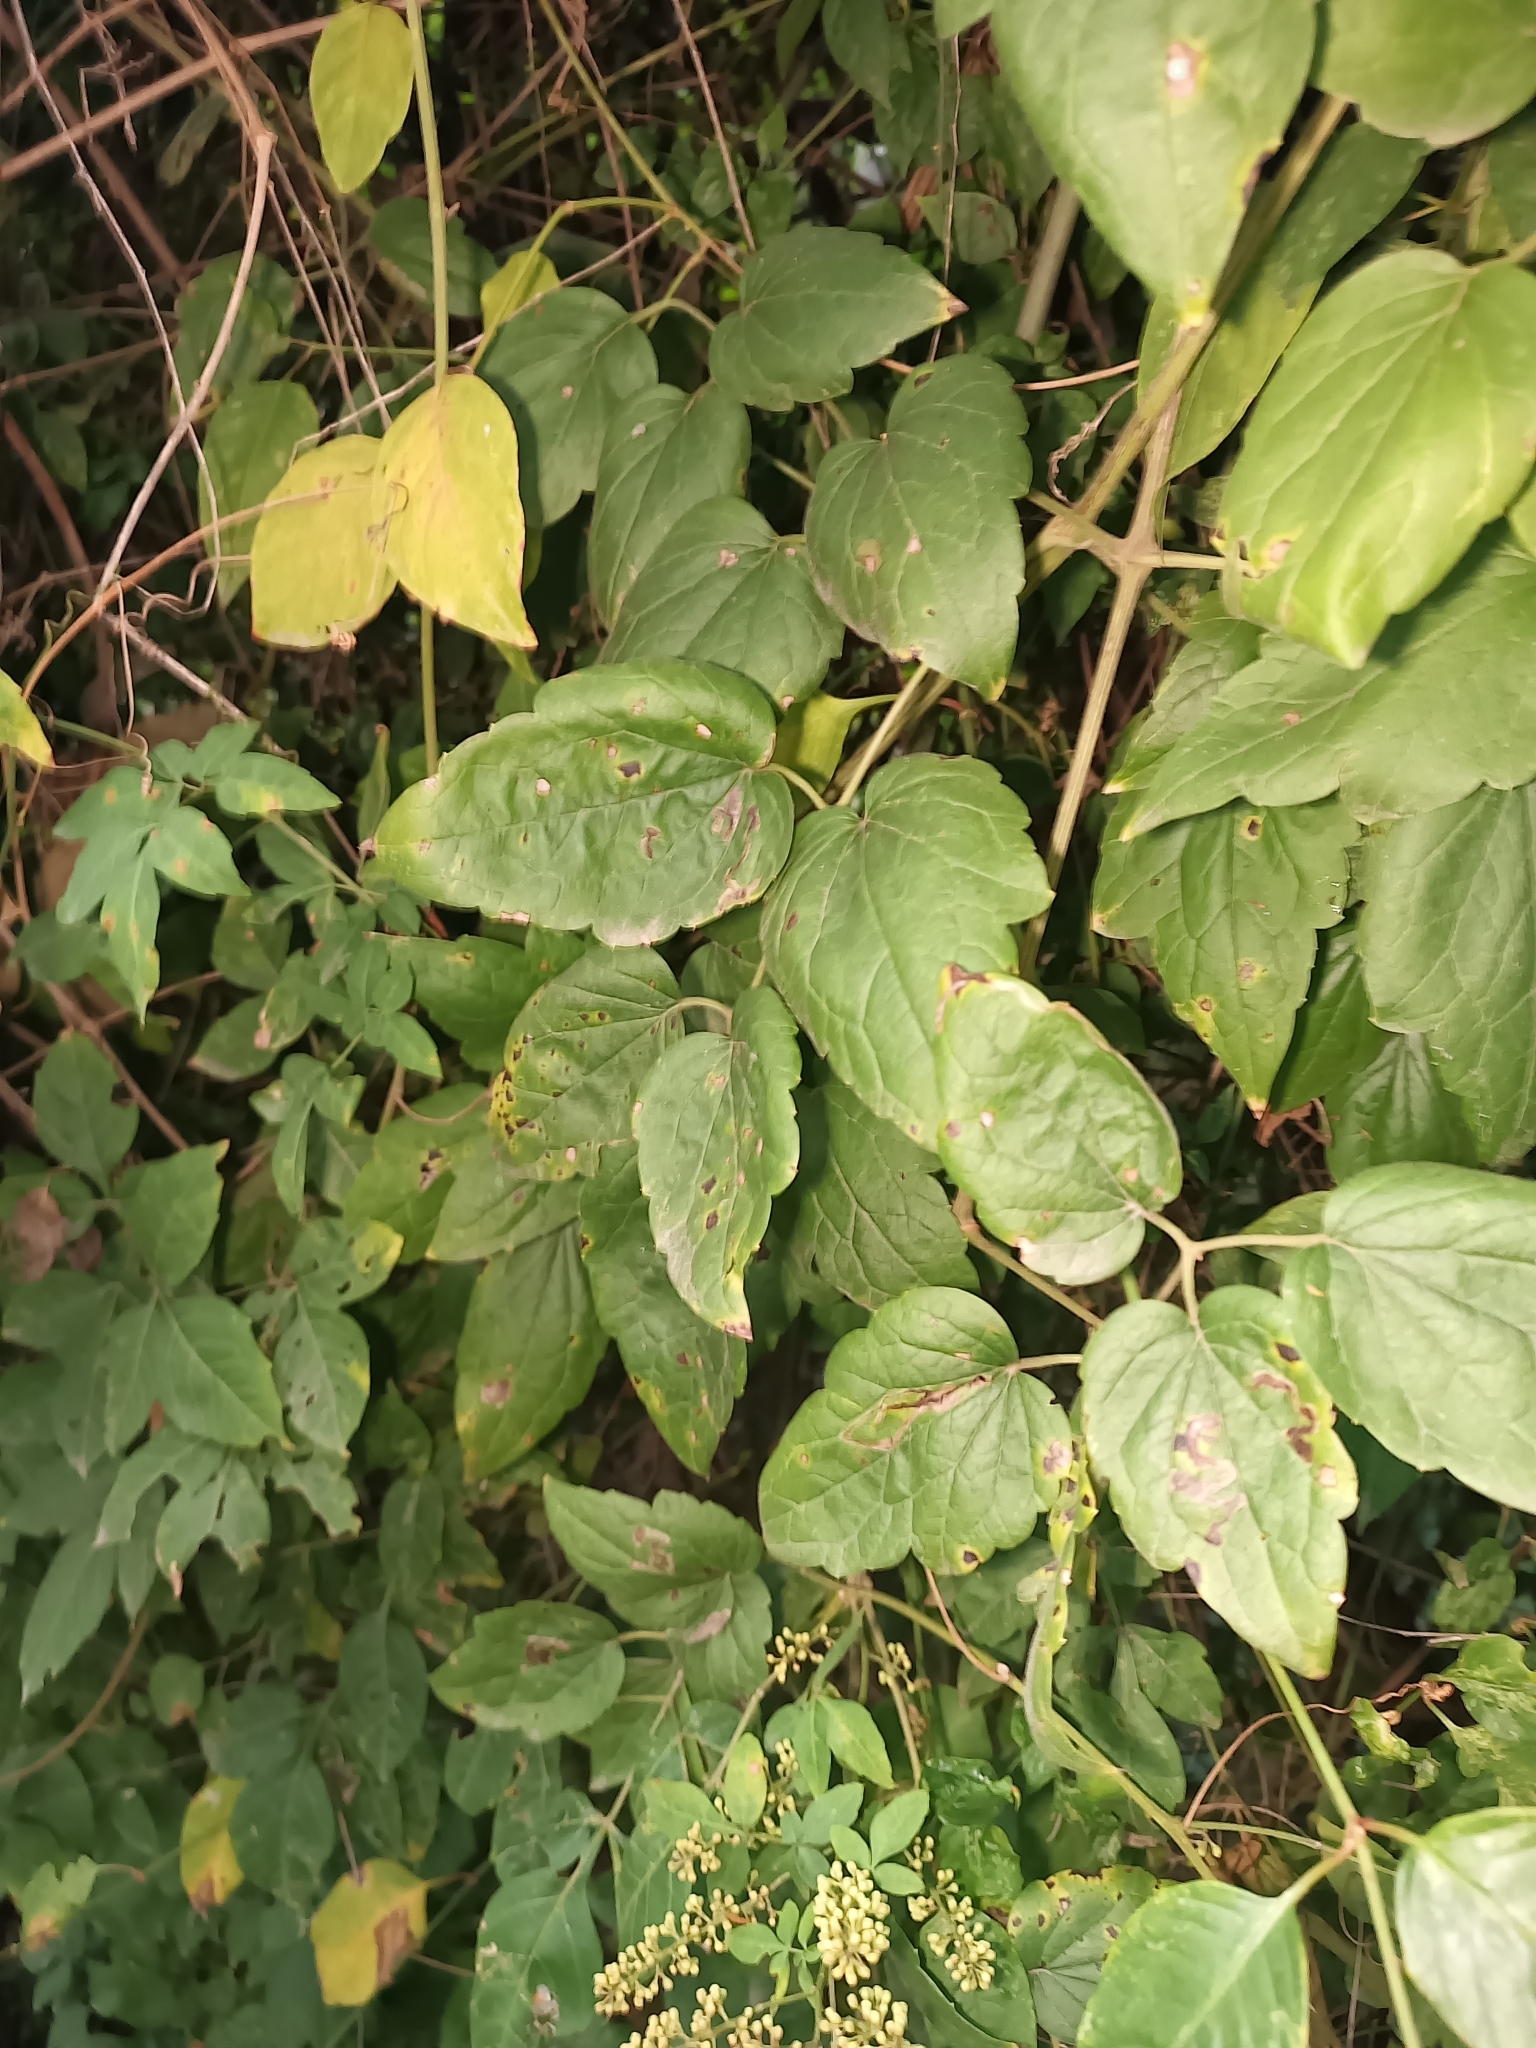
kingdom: Plantae
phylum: Tracheophyta
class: Magnoliopsida
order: Sapindales
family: Anacardiaceae
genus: Toxicodendron
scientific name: Toxicodendron radicans
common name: Poison ivy
